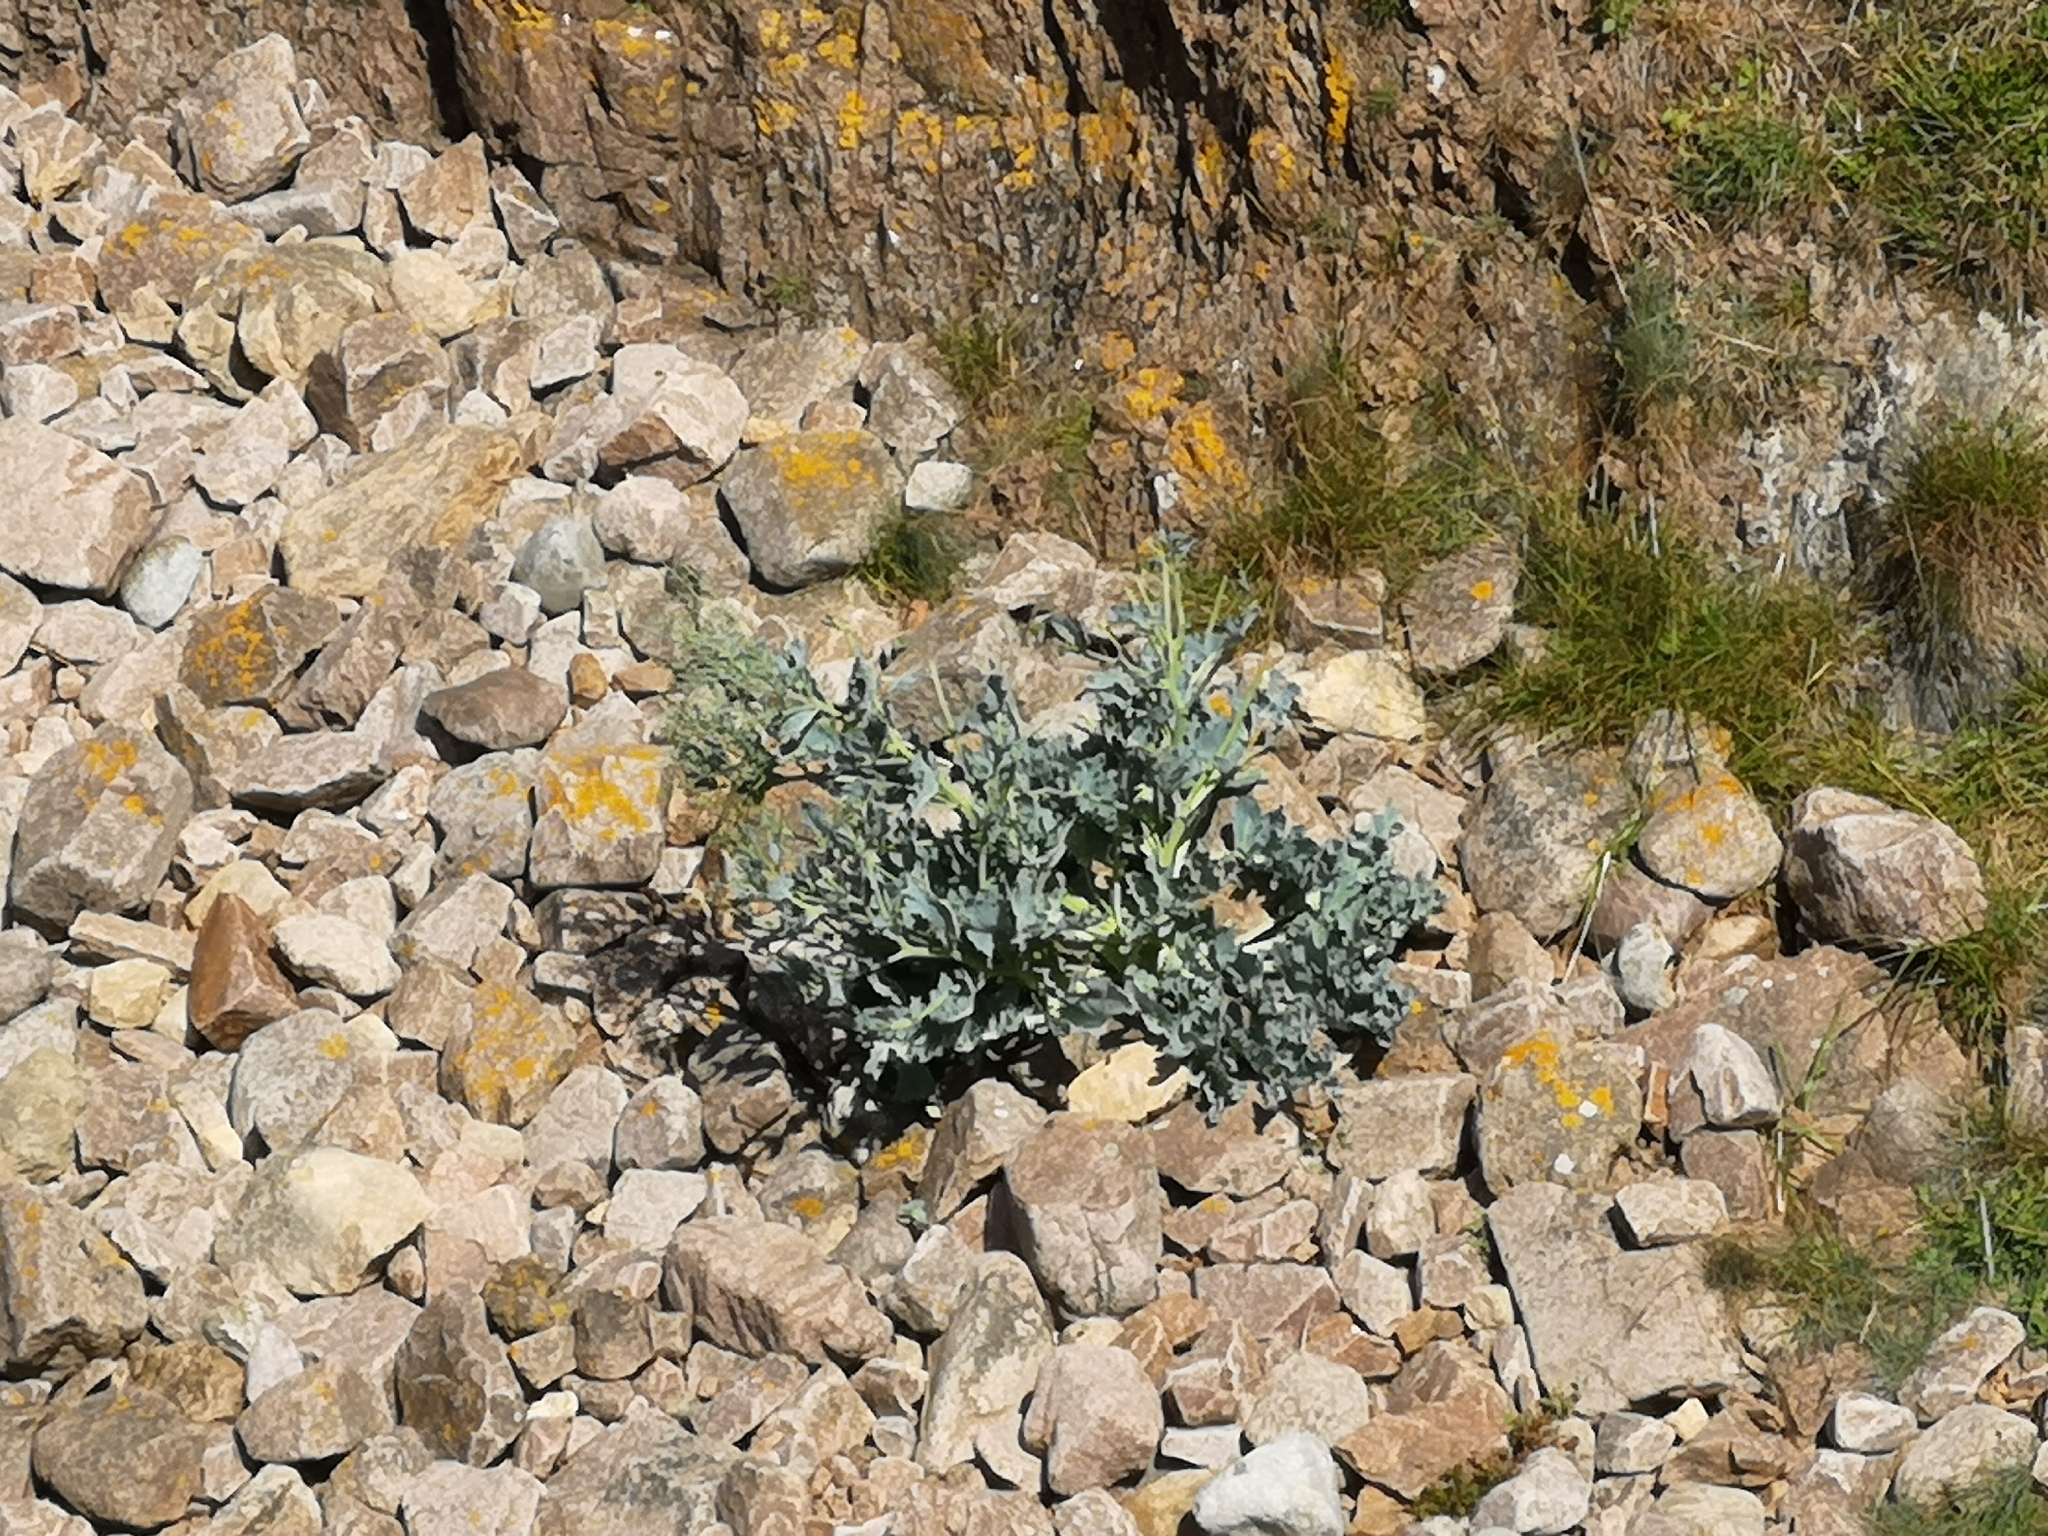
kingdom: Plantae
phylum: Tracheophyta
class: Magnoliopsida
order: Brassicales
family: Brassicaceae
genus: Crambe
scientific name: Crambe maritima
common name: Sea-kale
